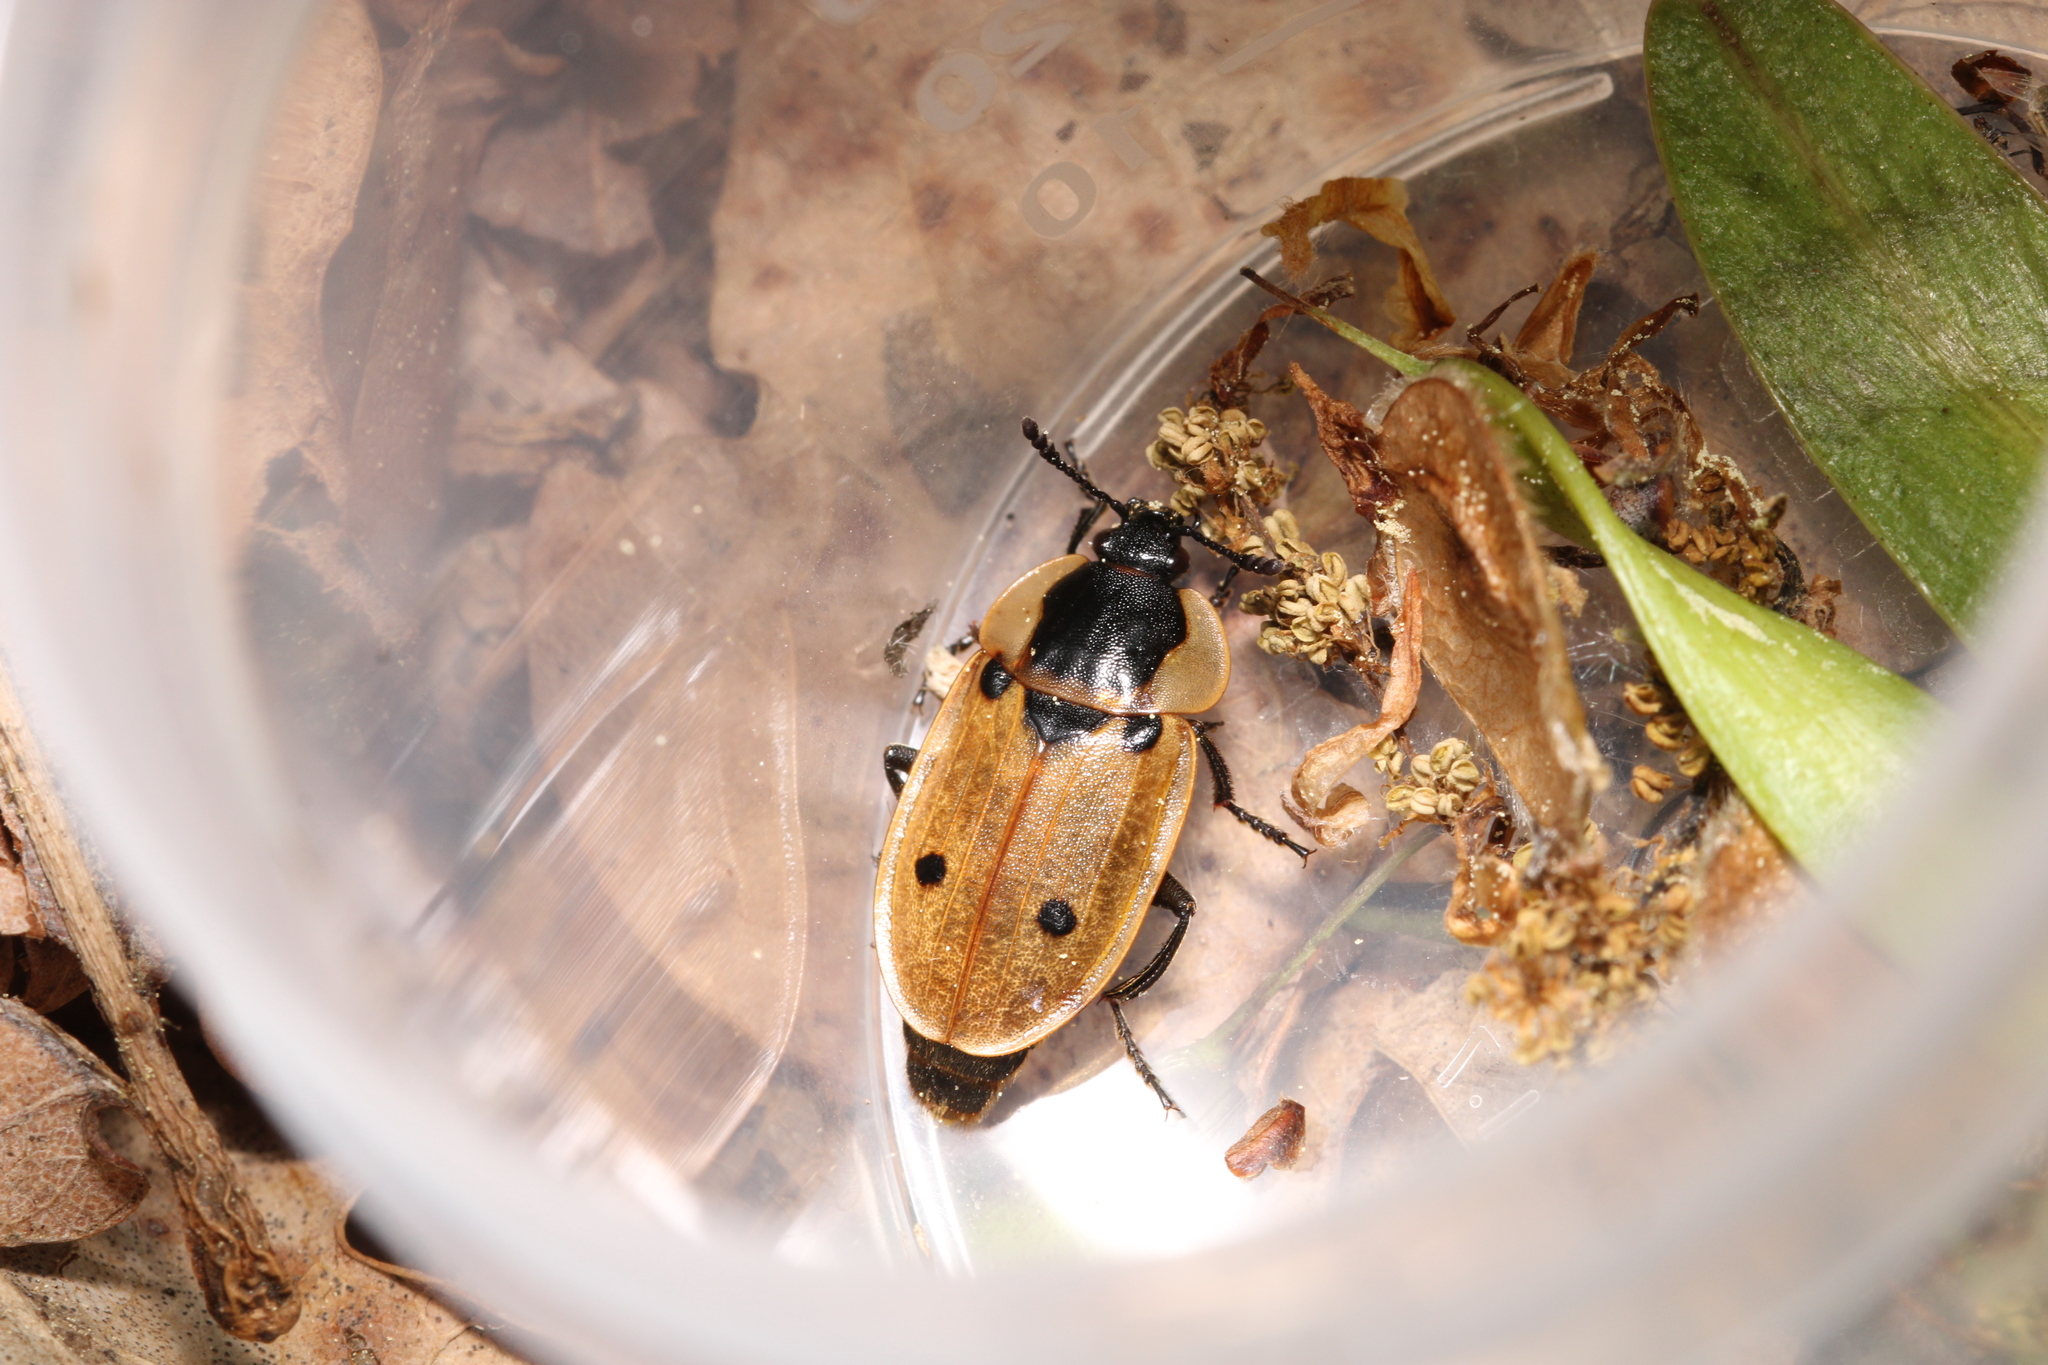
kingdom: Animalia
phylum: Arthropoda
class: Insecta
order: Coleoptera
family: Staphylinidae
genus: Dendroxena
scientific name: Dendroxena quadrimaculata
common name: Carrion beetle
